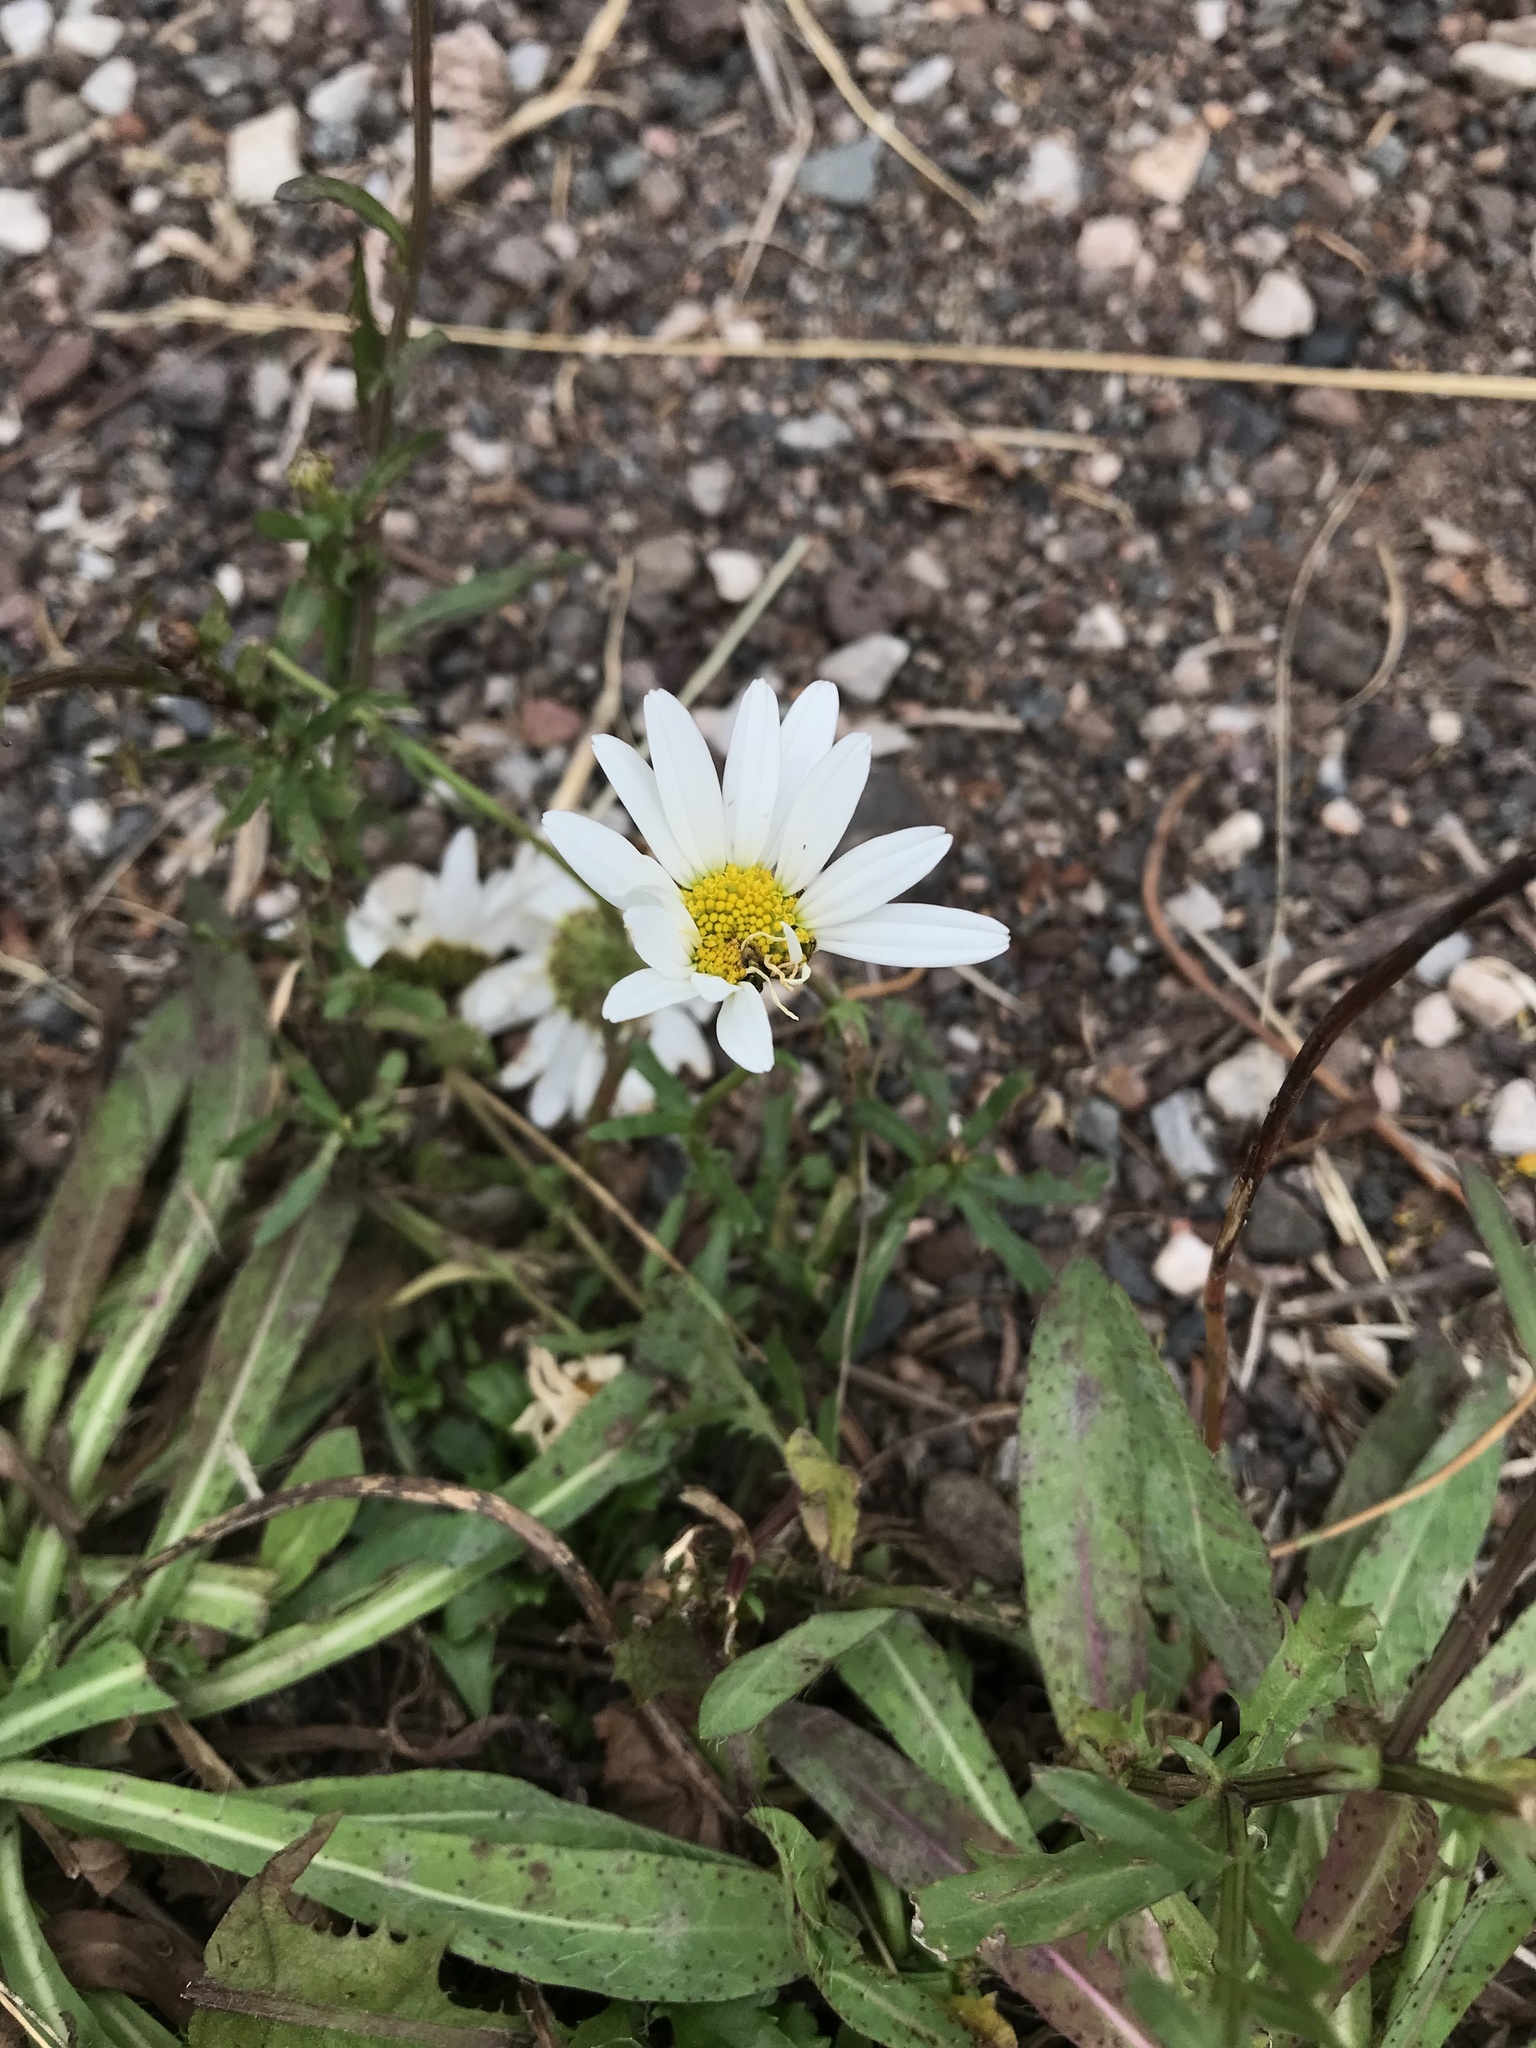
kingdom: Plantae
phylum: Tracheophyta
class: Magnoliopsida
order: Asterales
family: Asteraceae
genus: Leucanthemum
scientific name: Leucanthemum vulgare
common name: Oxeye daisy
